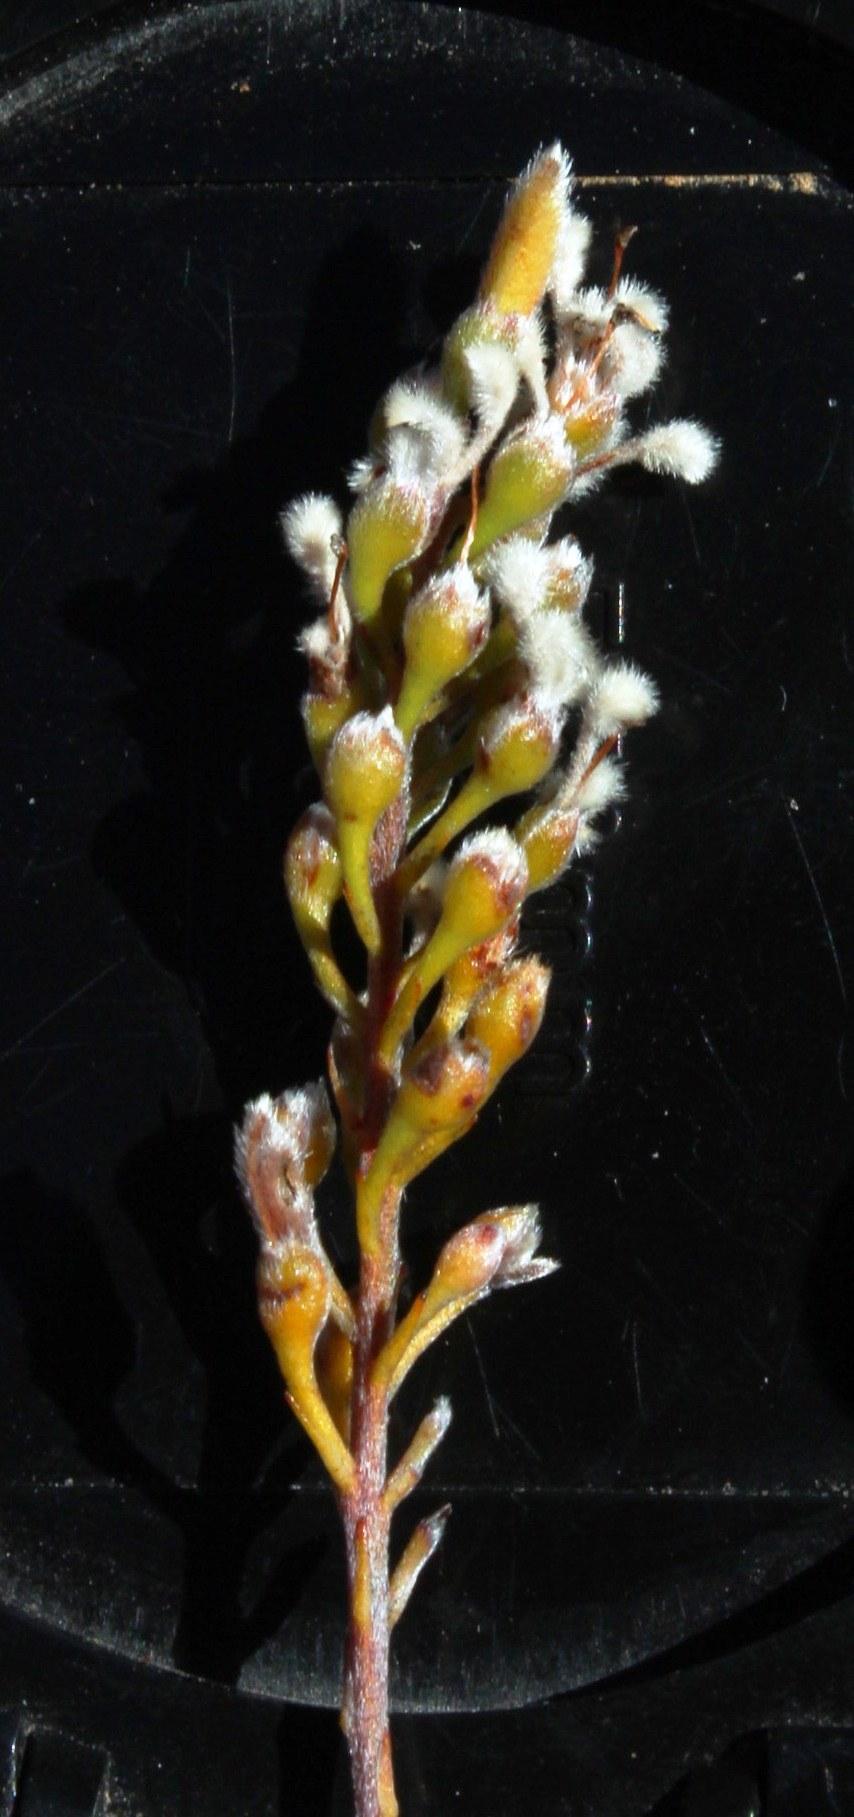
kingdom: Plantae
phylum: Tracheophyta
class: Magnoliopsida
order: Proteales
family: Proteaceae
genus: Spatalla
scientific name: Spatalla racemosa
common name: Lax-stalked spoon
